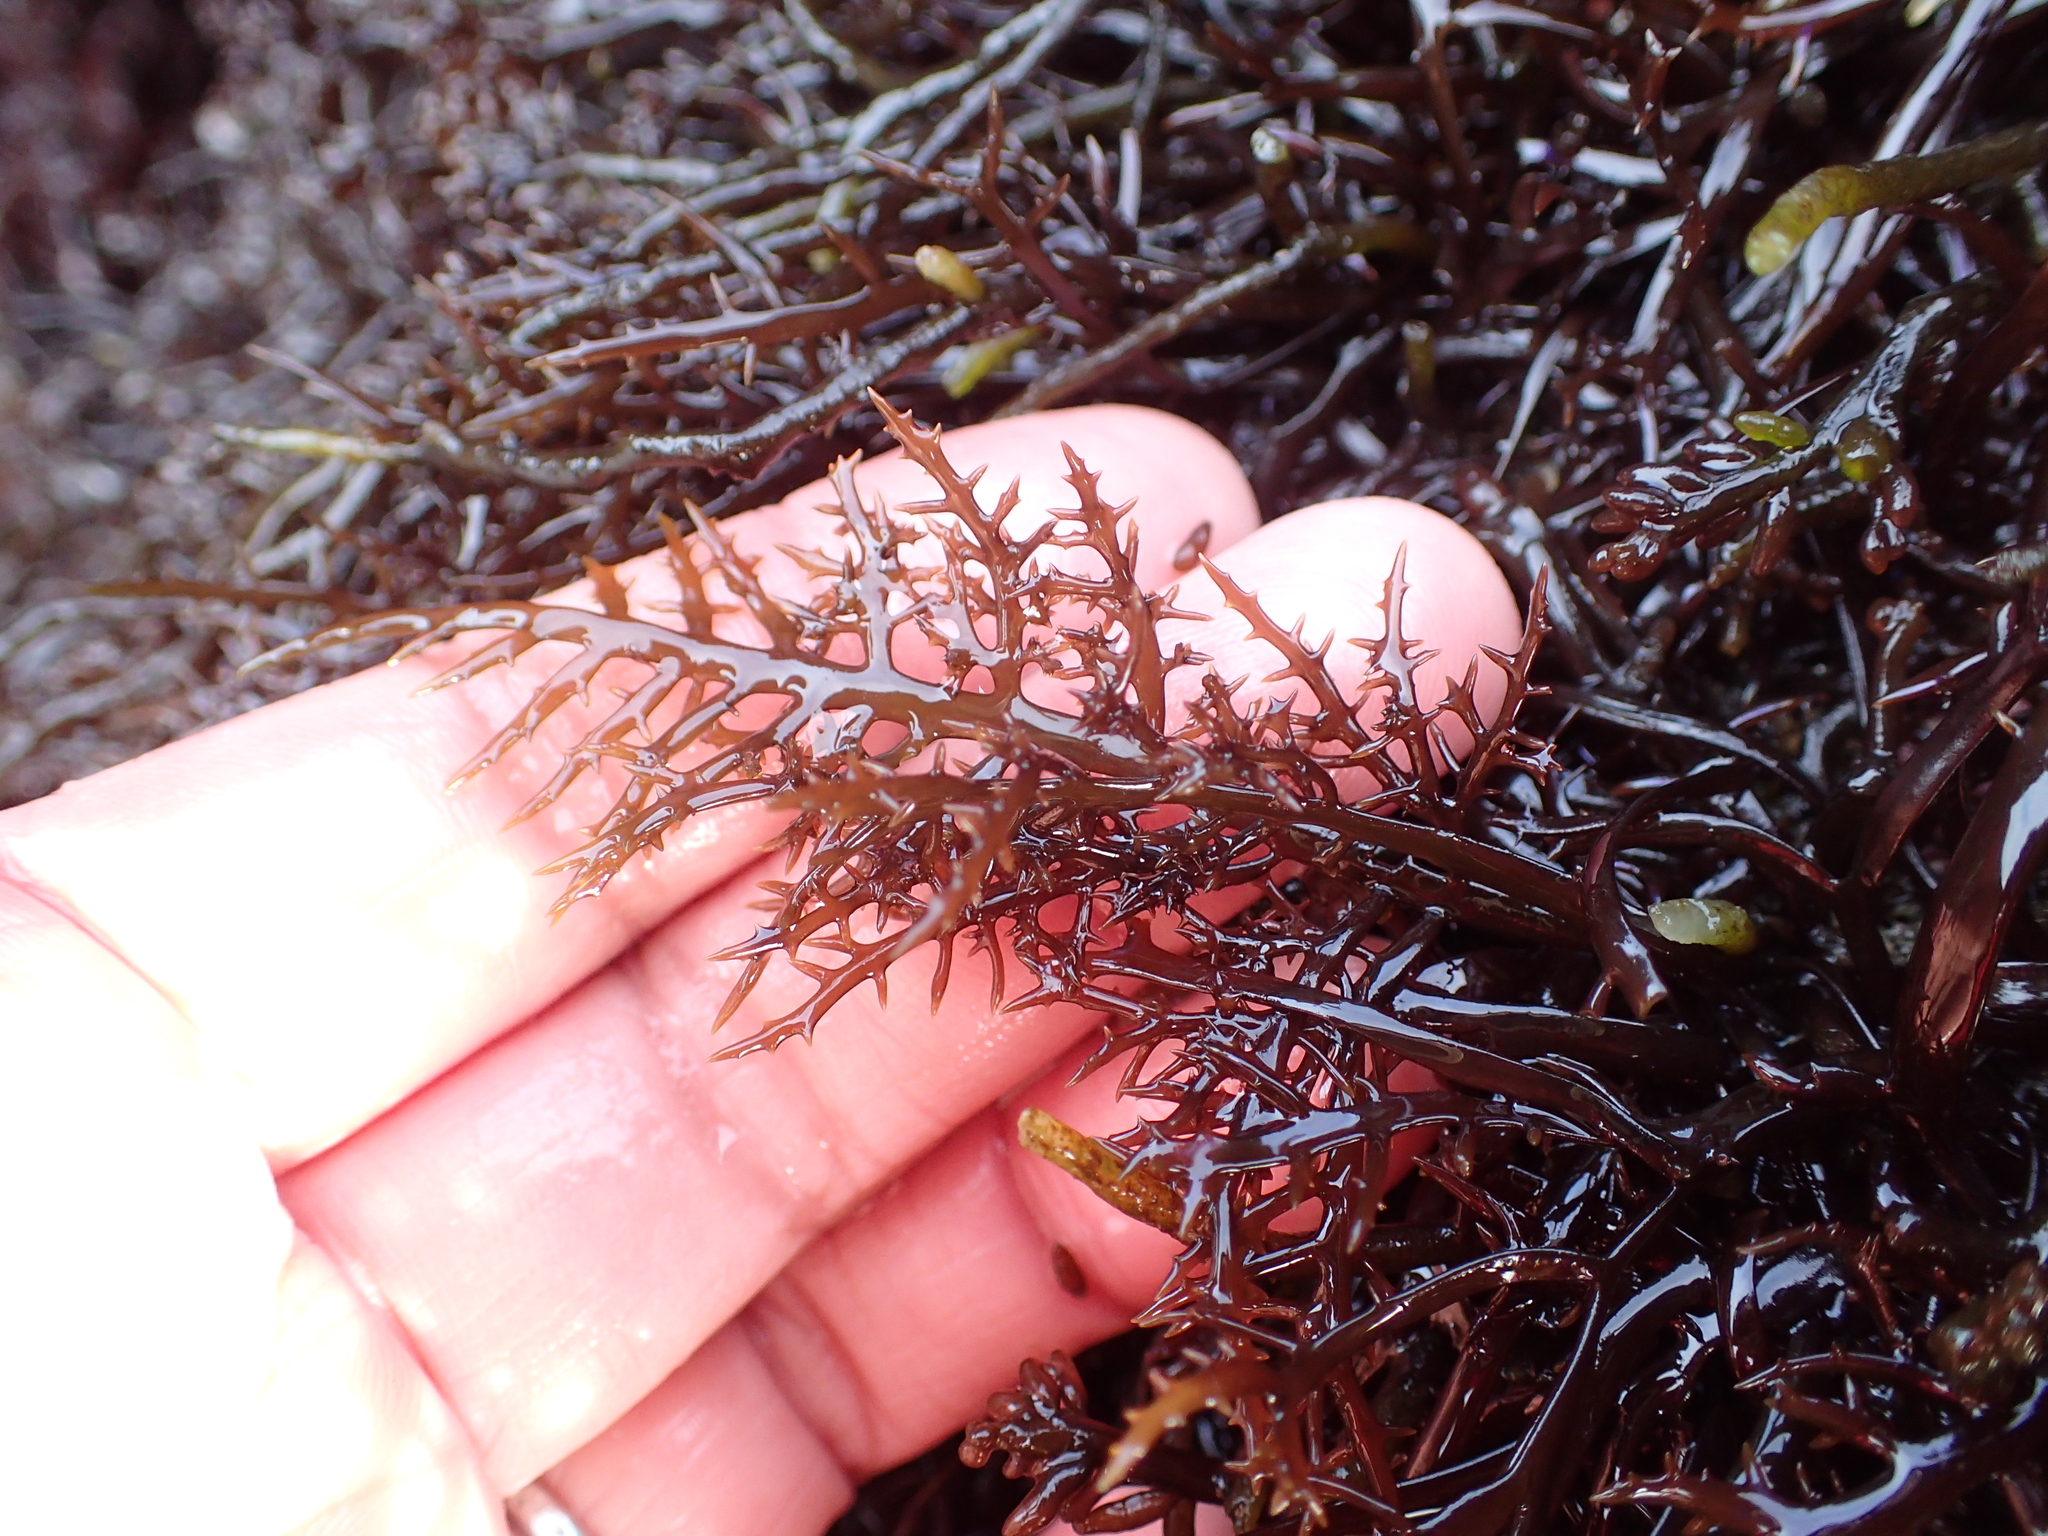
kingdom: Plantae
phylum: Rhodophyta
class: Florideophyceae
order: Gigartinales
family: Gigartinaceae
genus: Chondracanthus
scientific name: Chondracanthus canaliculatus
